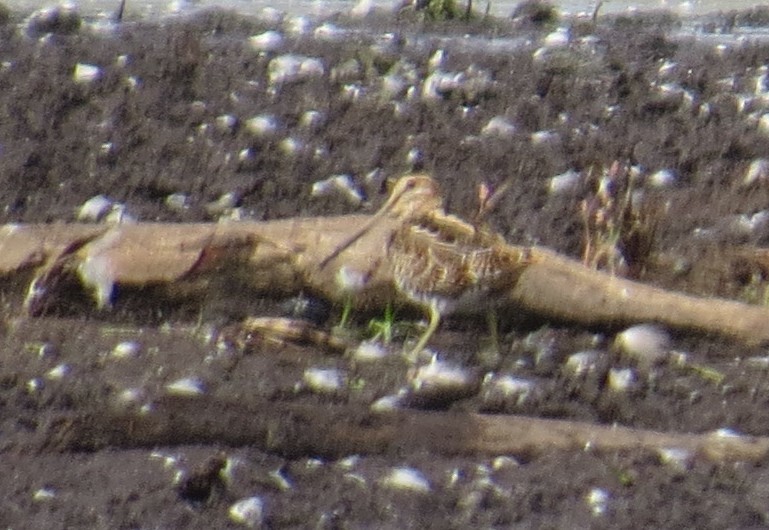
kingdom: Animalia
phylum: Chordata
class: Aves
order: Charadriiformes
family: Scolopacidae
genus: Gallinago
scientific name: Gallinago delicata
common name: Wilson's snipe
